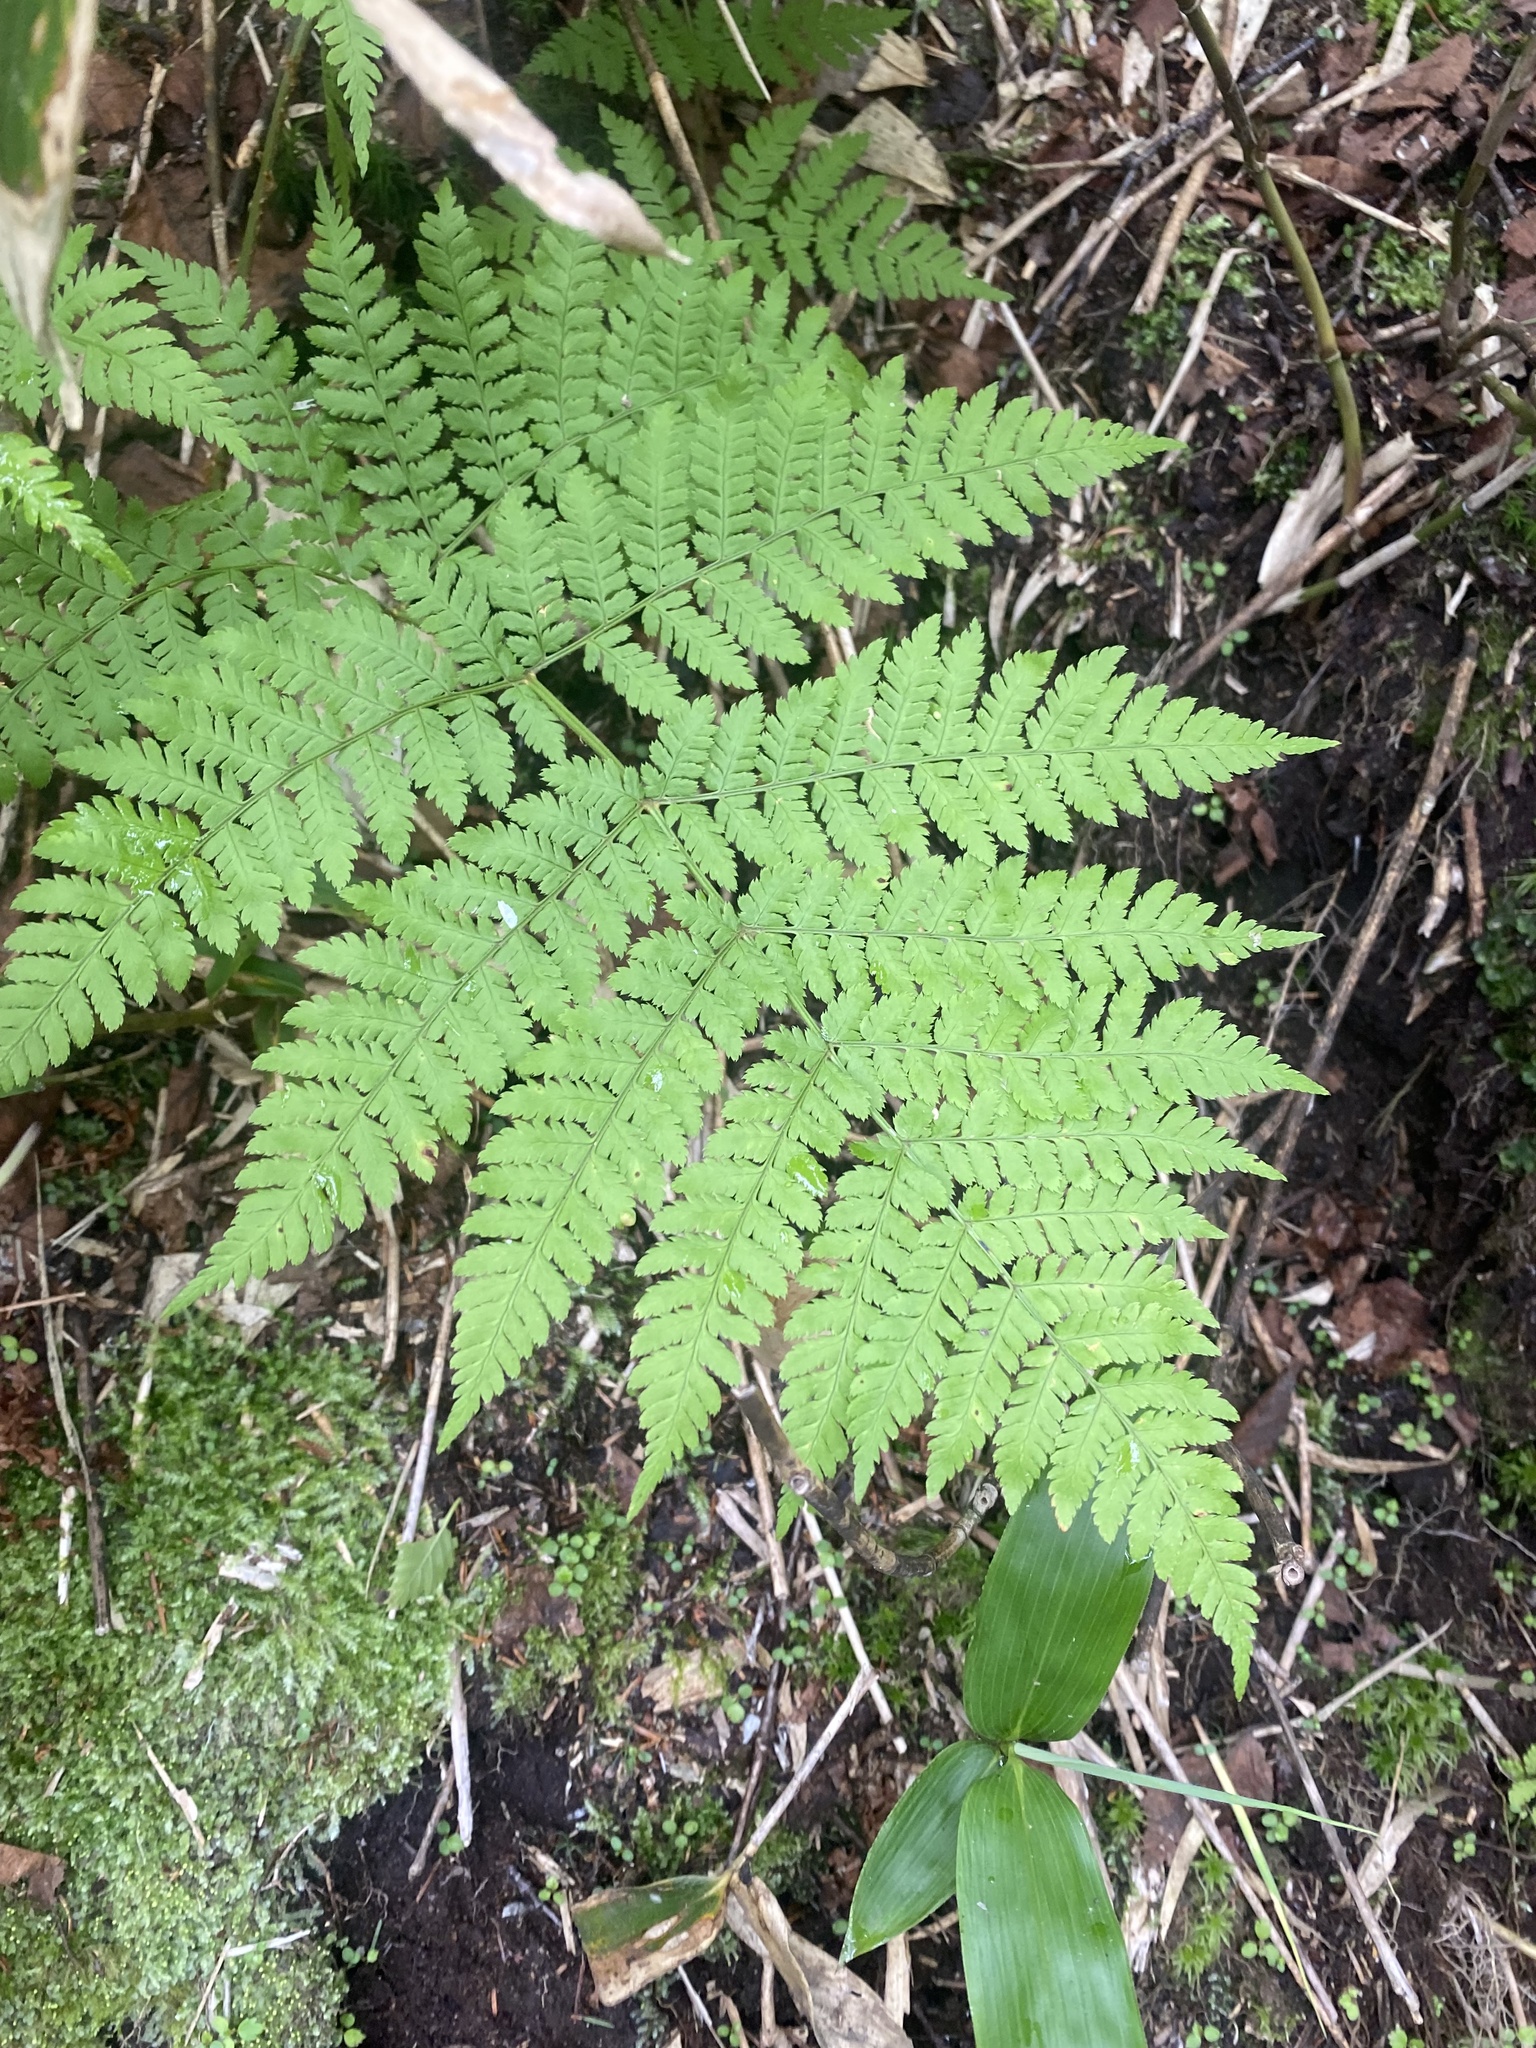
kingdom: Plantae
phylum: Tracheophyta
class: Polypodiopsida
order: Polypodiales
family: Dryopteridaceae
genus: Dryopteris
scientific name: Dryopteris expansa
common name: Northern buckler fern
